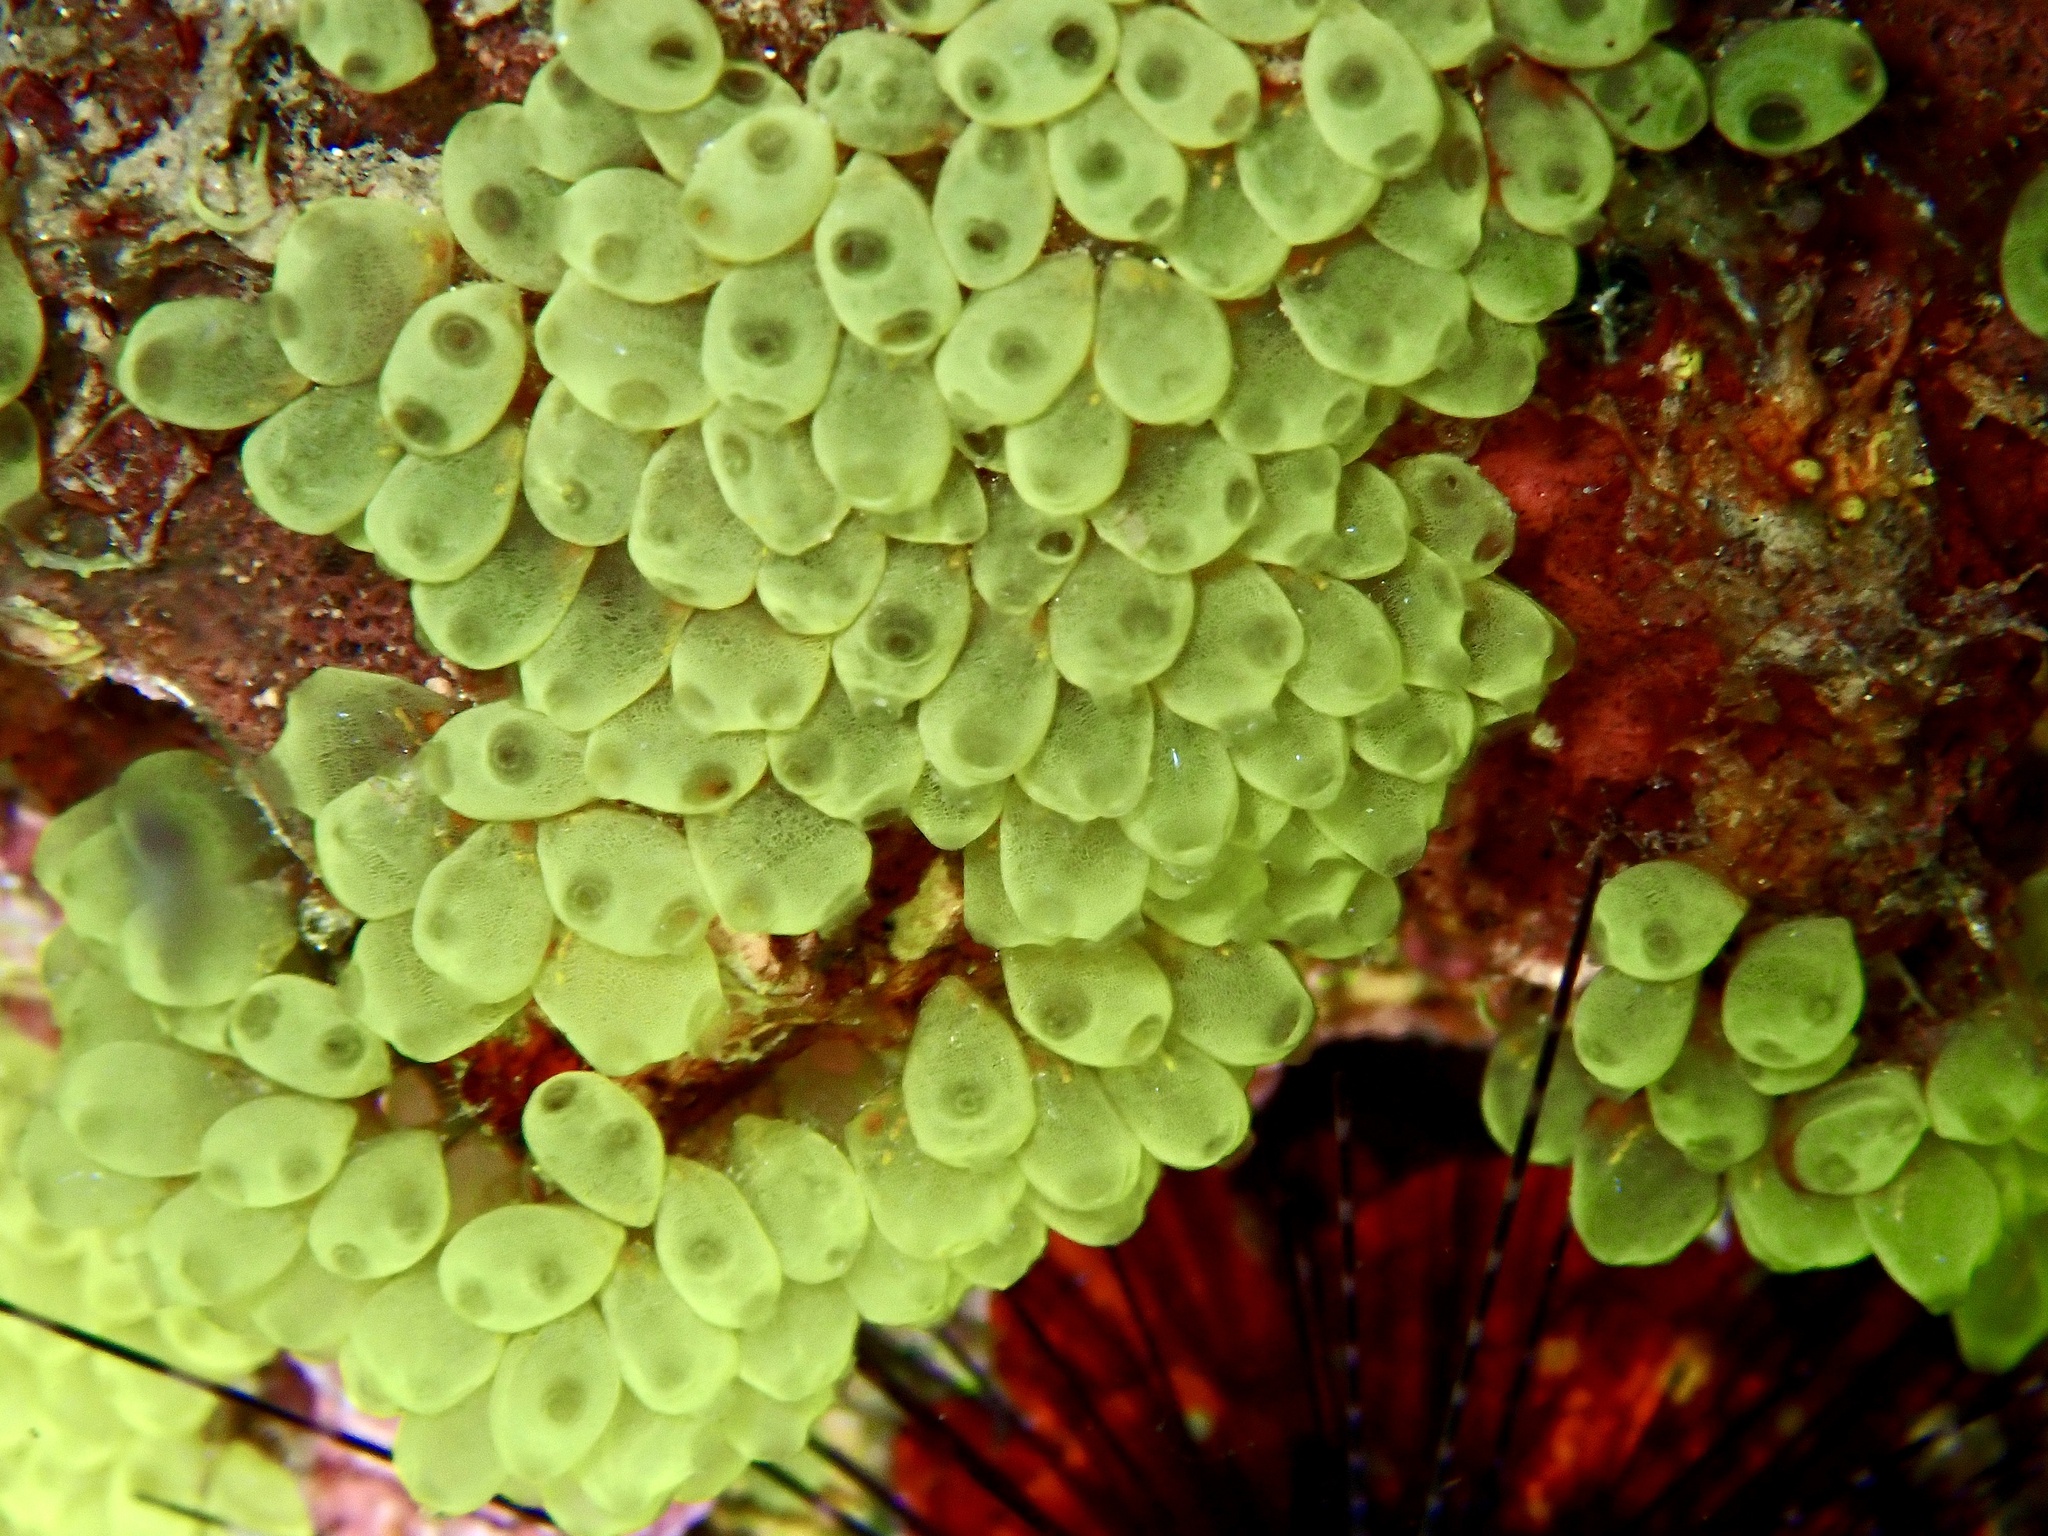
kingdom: Animalia
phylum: Chordata
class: Ascidiacea
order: Phlebobranchia
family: Perophoridae
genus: Perophora
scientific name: Perophora modificata
